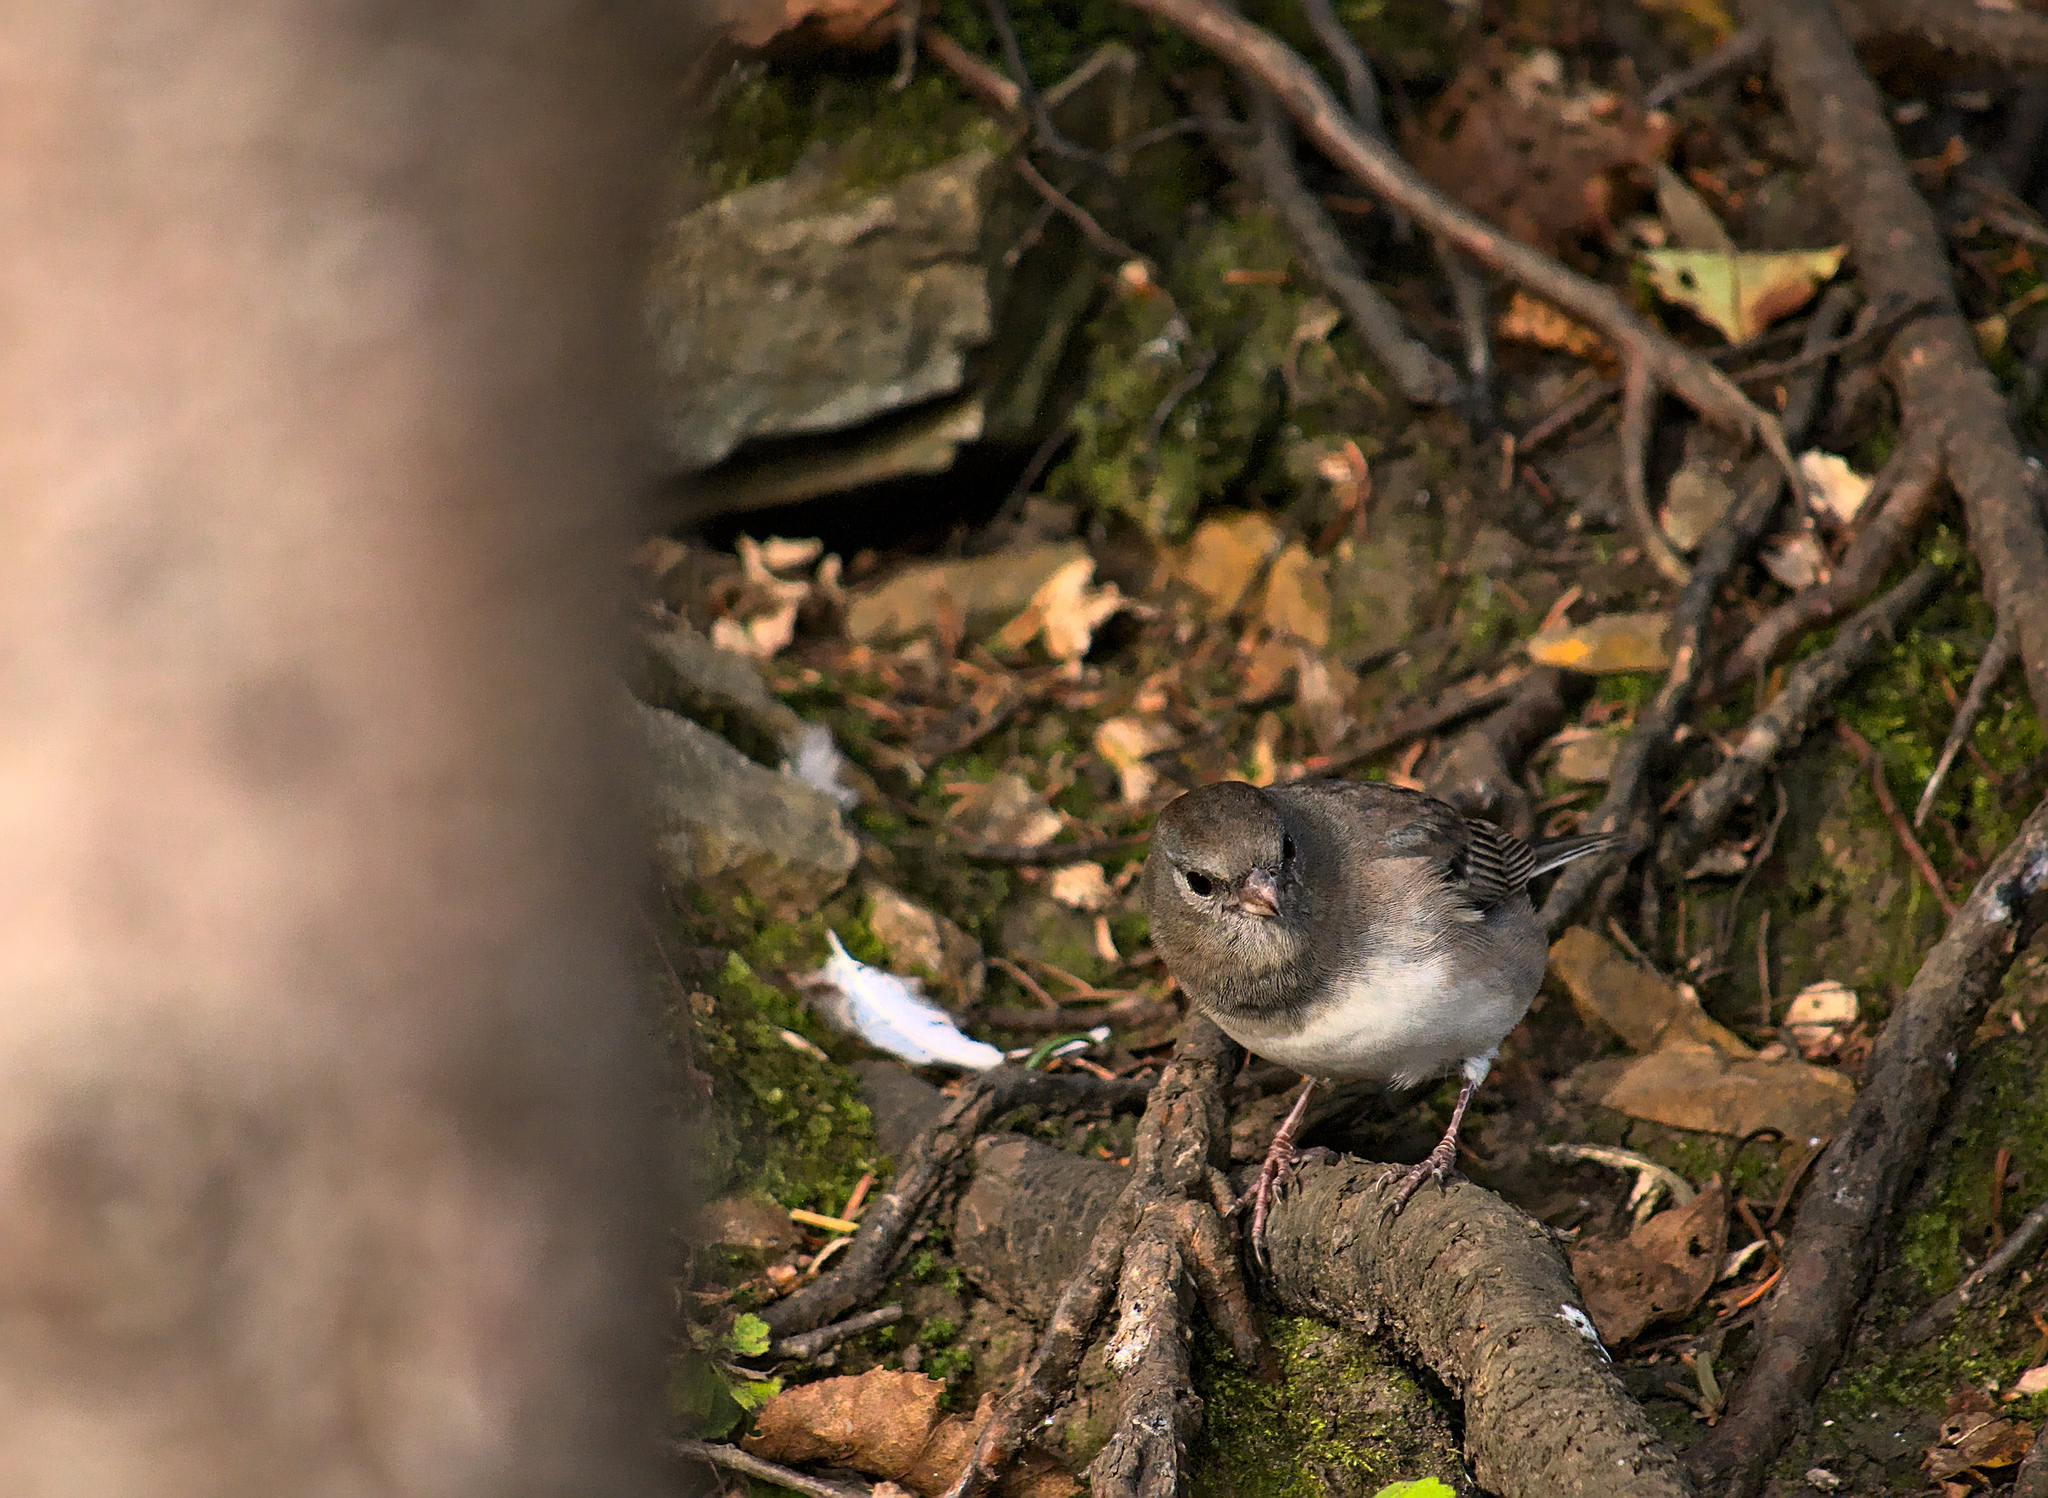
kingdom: Animalia
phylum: Chordata
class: Aves
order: Passeriformes
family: Passerellidae
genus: Junco
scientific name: Junco hyemalis
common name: Dark-eyed junco
